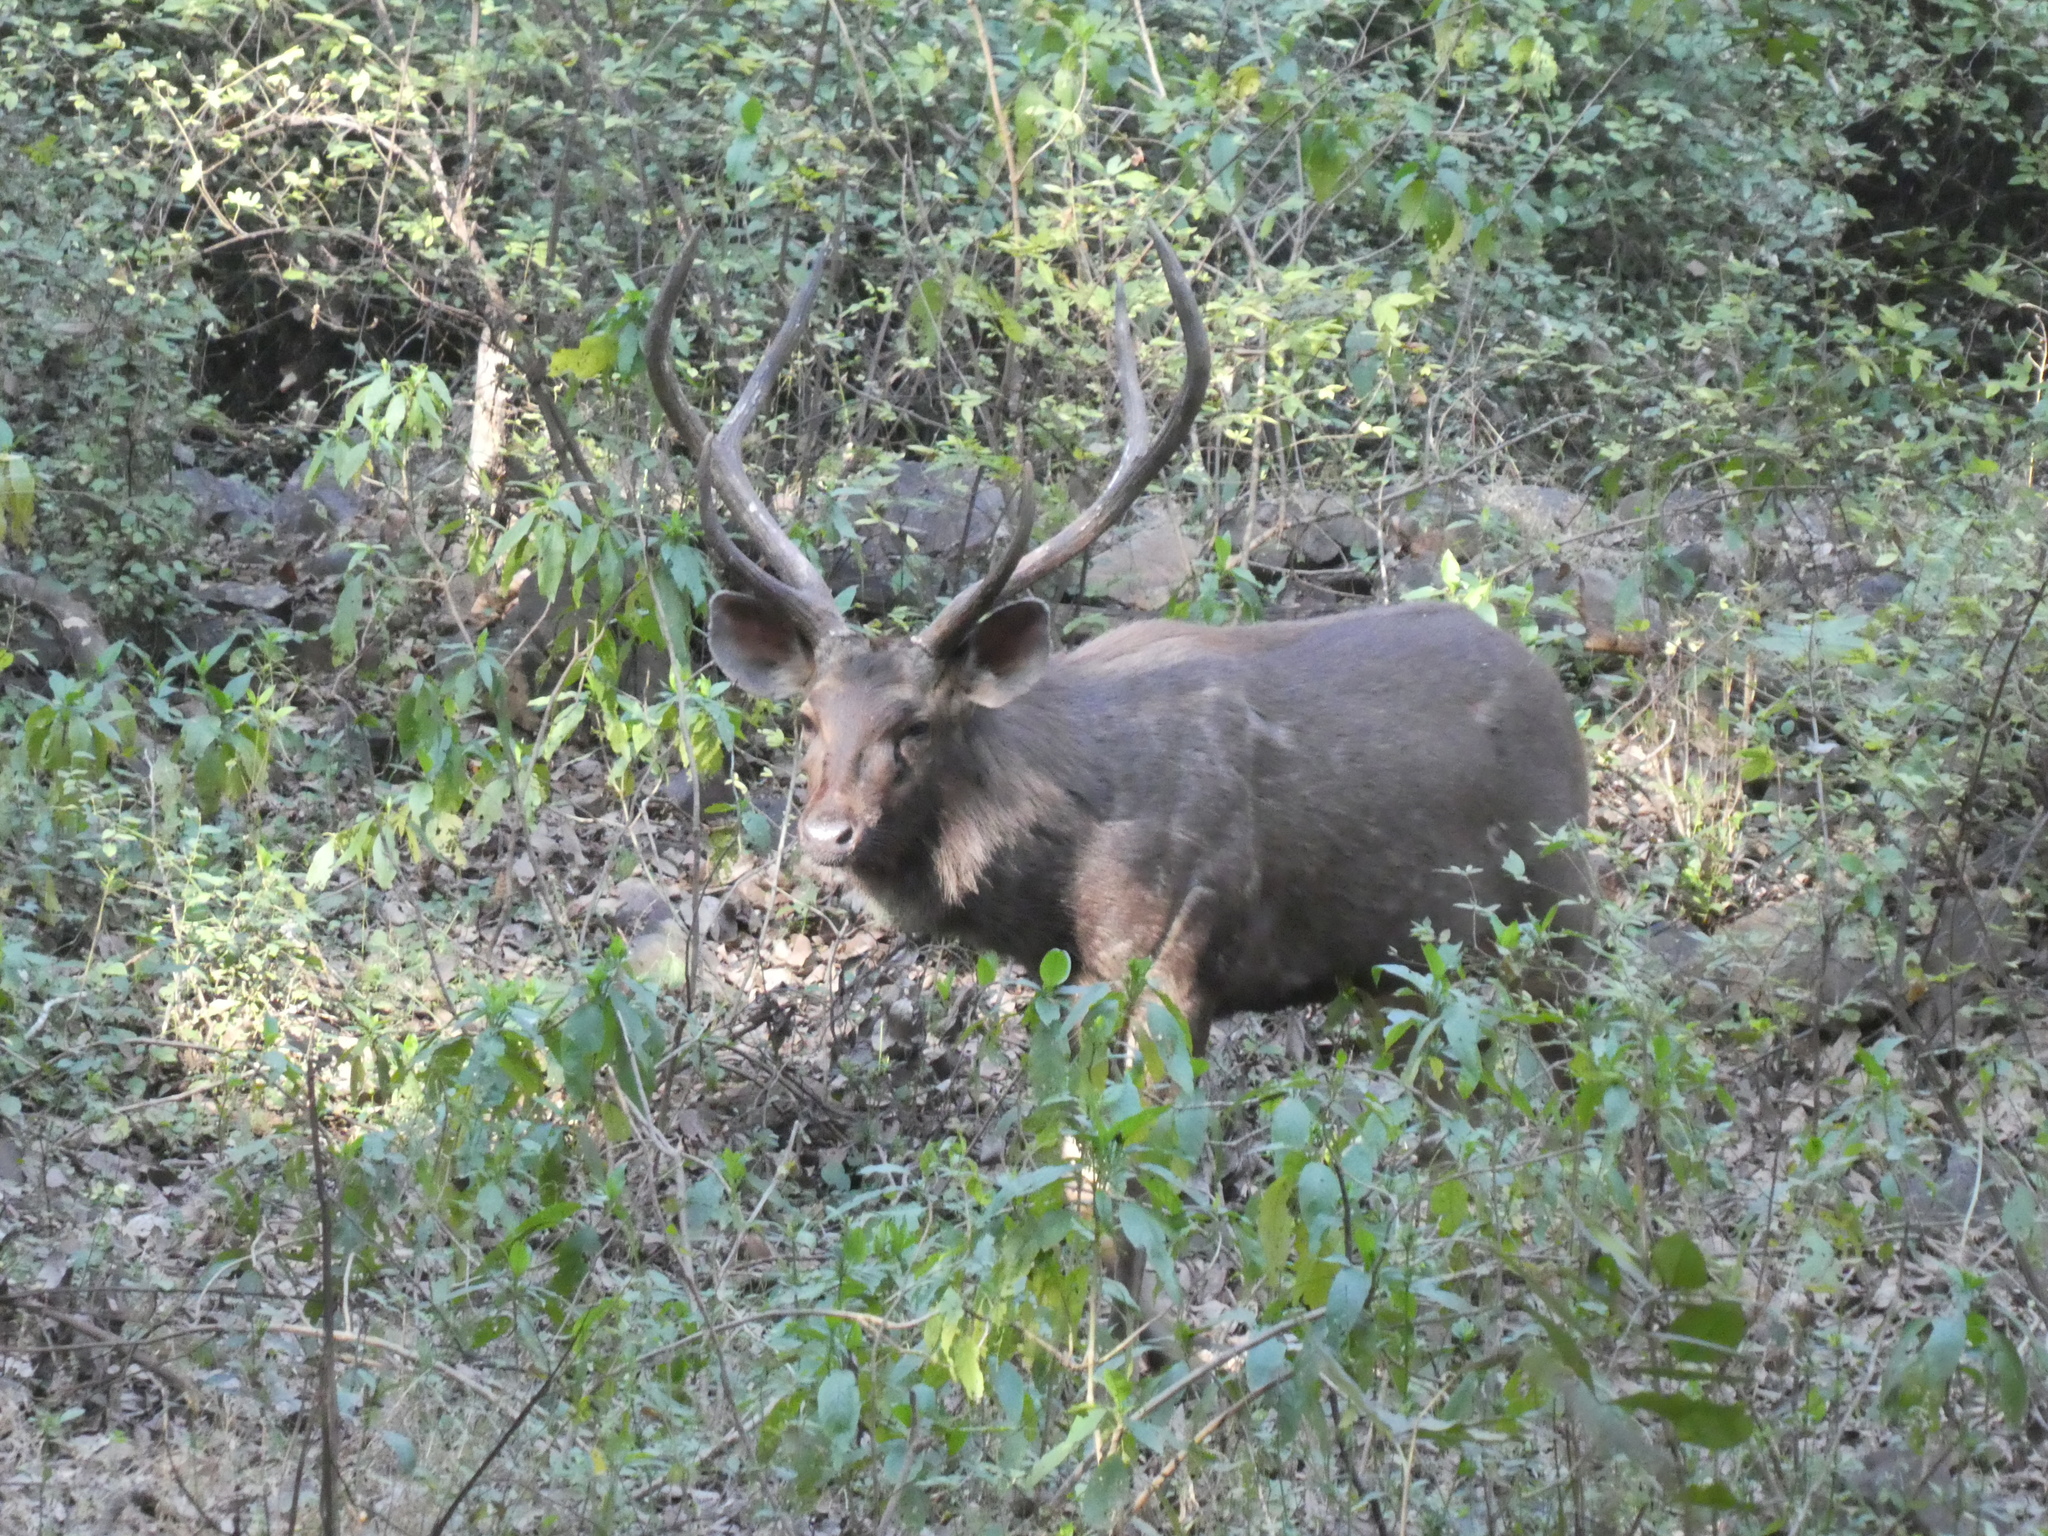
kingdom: Animalia
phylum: Chordata
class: Mammalia
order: Artiodactyla
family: Cervidae
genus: Rusa
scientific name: Rusa unicolor
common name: Sambar
